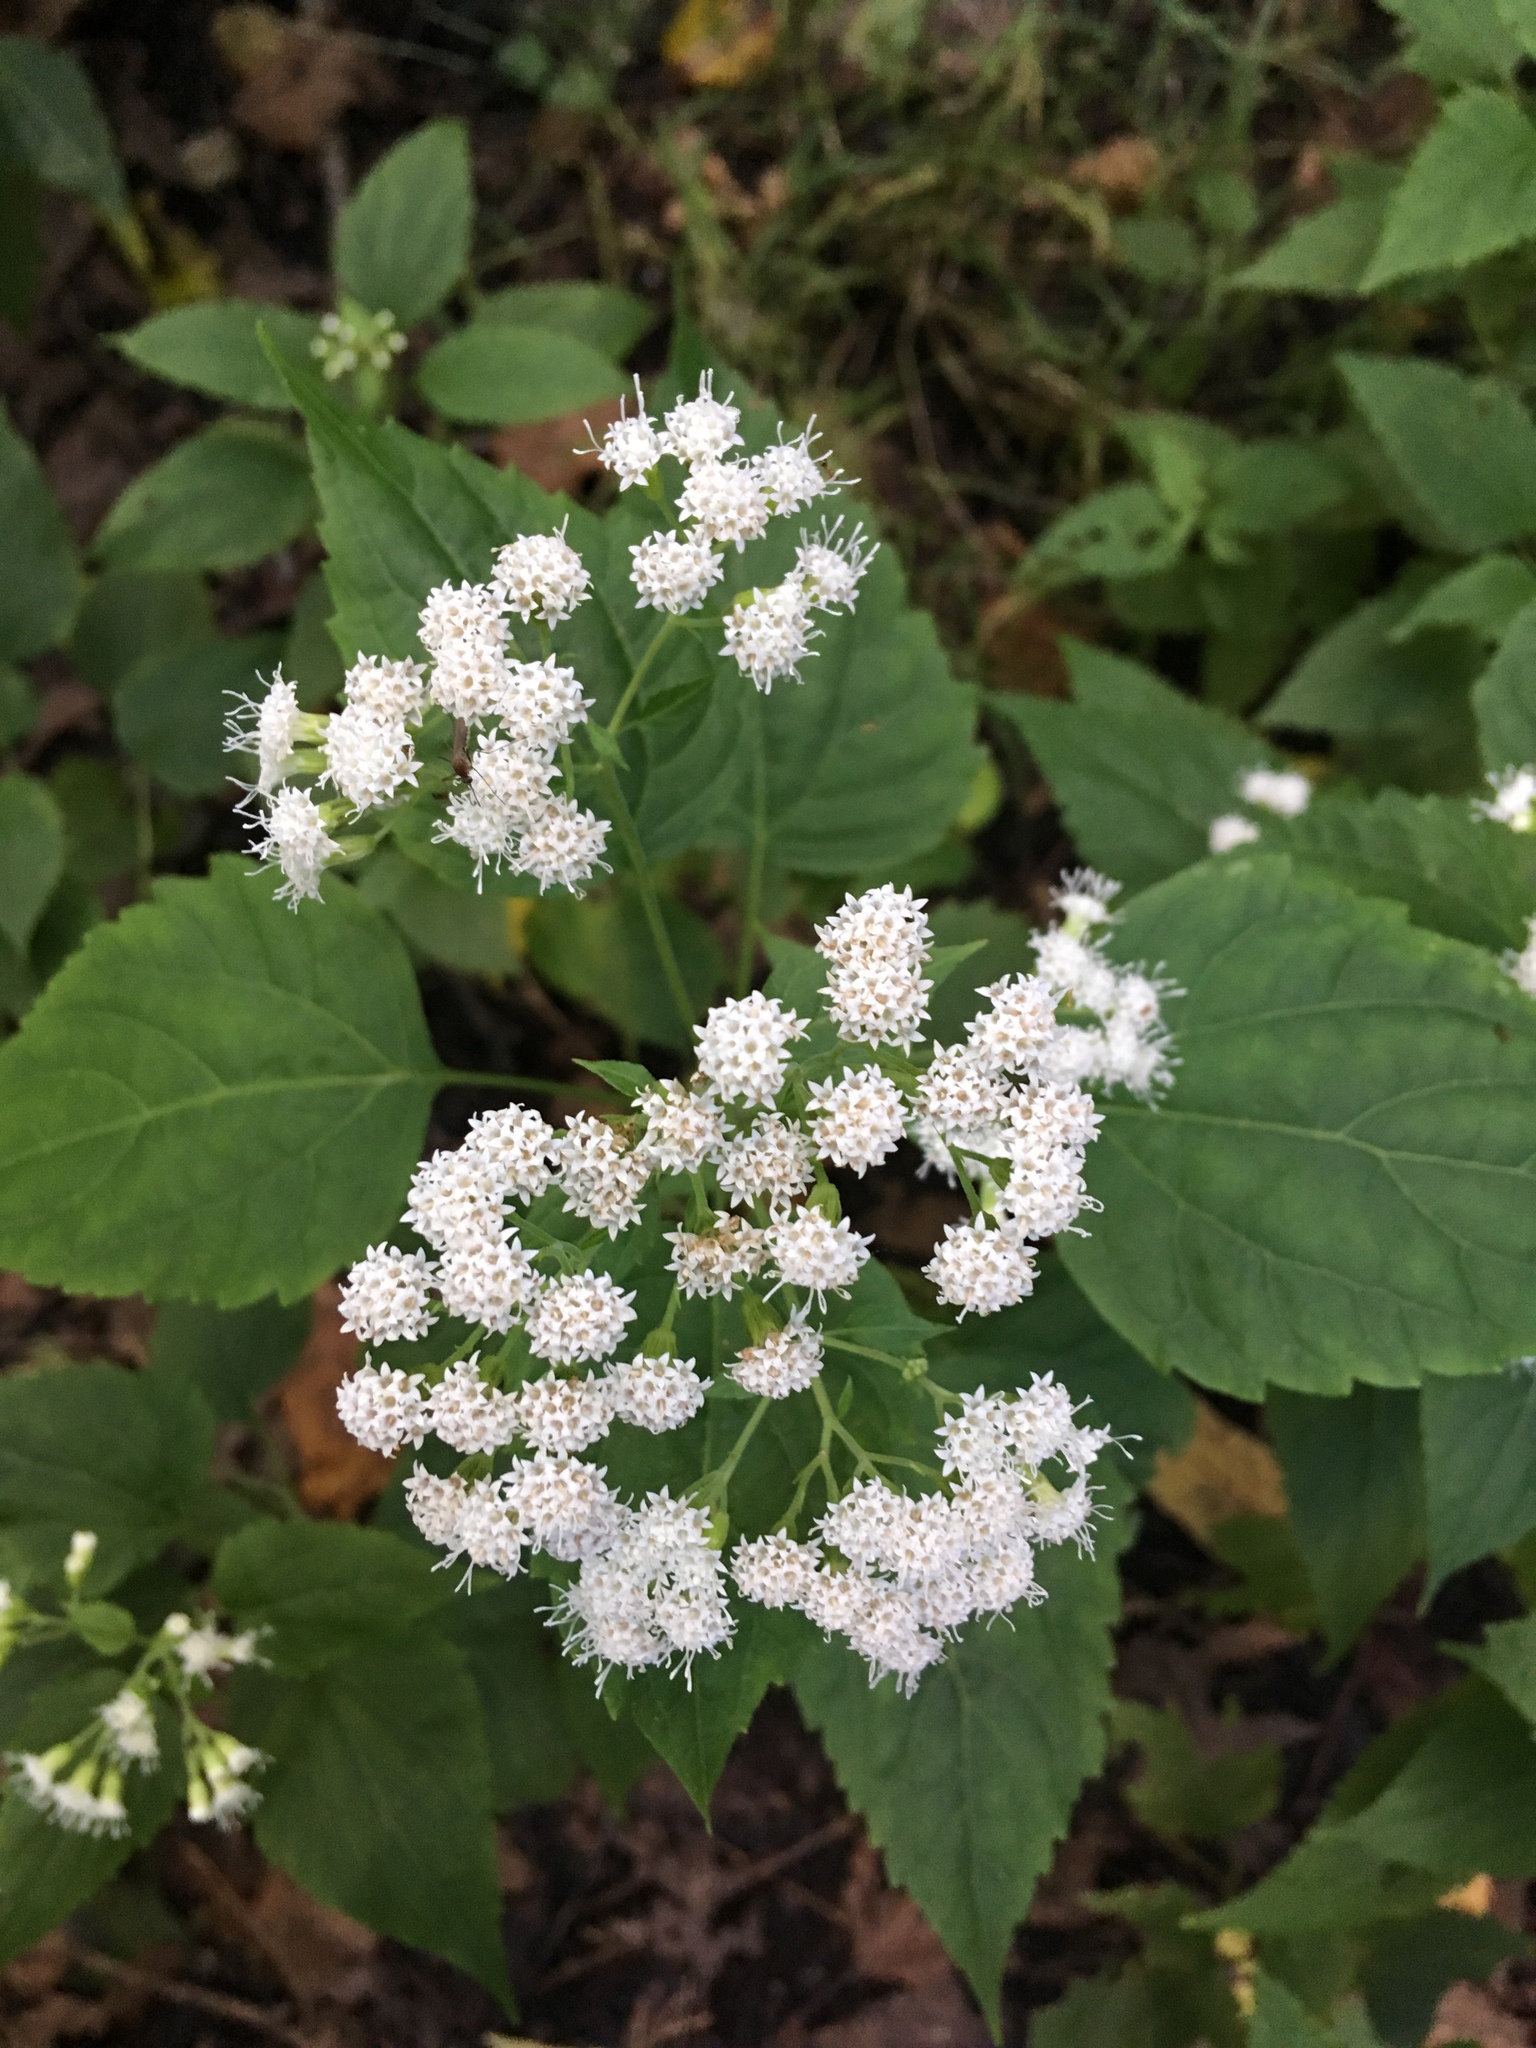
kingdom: Plantae
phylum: Tracheophyta
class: Magnoliopsida
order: Asterales
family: Asteraceae
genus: Ageratina
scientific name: Ageratina altissima
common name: White snakeroot
